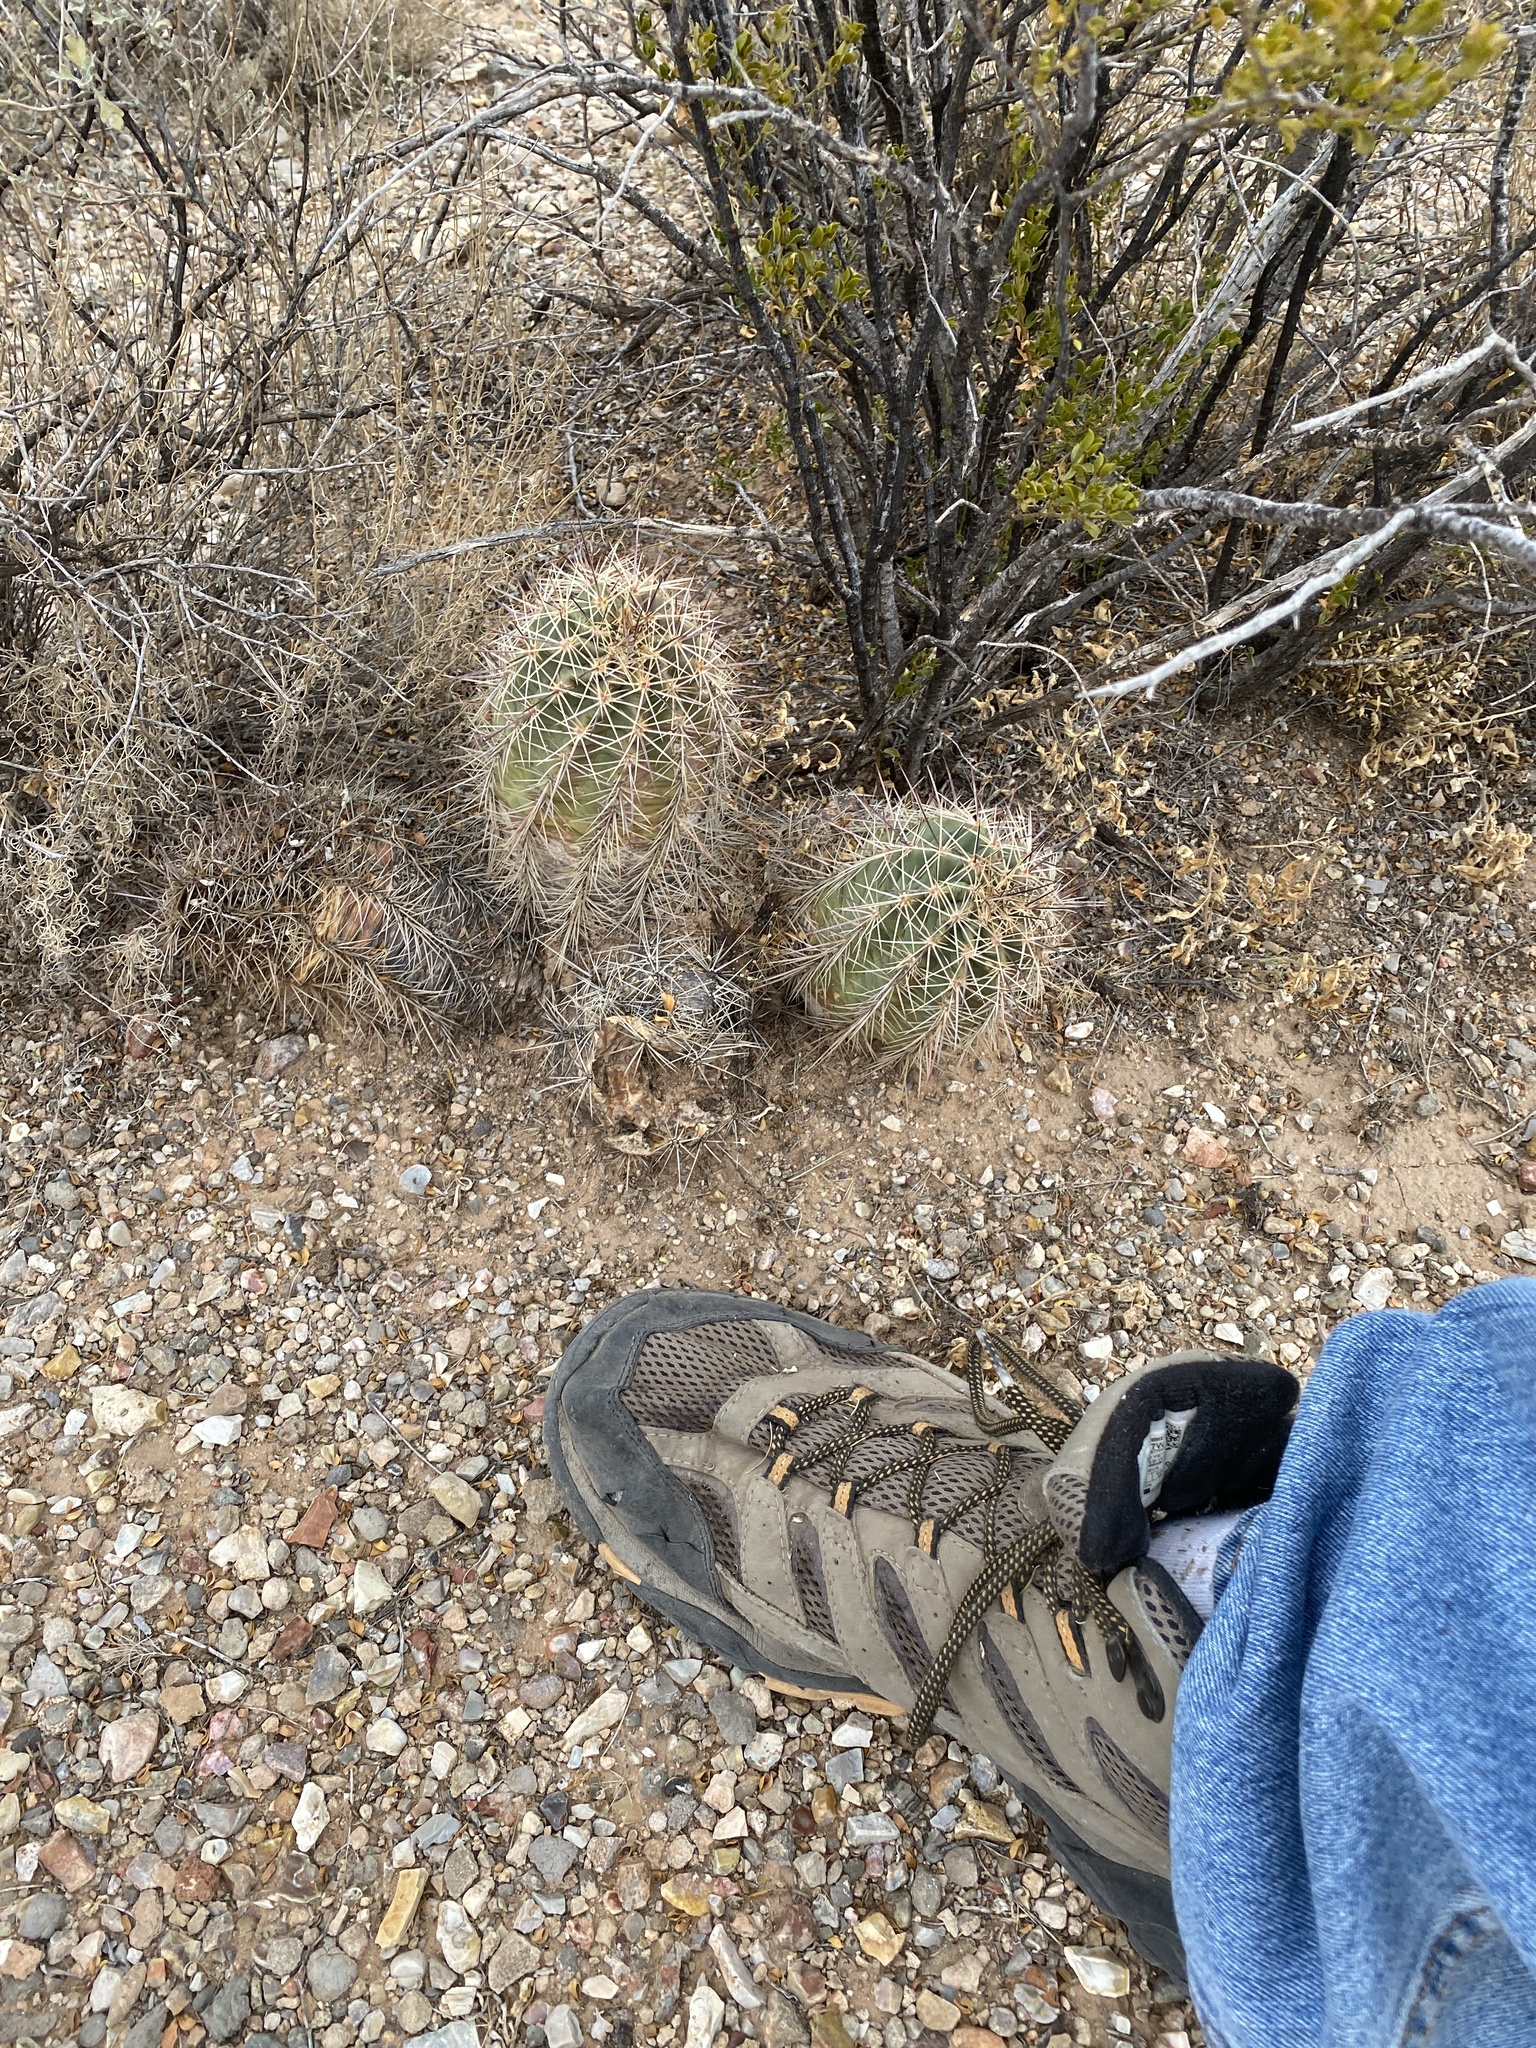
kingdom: Plantae
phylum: Tracheophyta
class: Magnoliopsida
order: Caryophyllales
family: Cactaceae
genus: Echinocereus
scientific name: Echinocereus coccineus
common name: Scarlet hedgehog cactus
